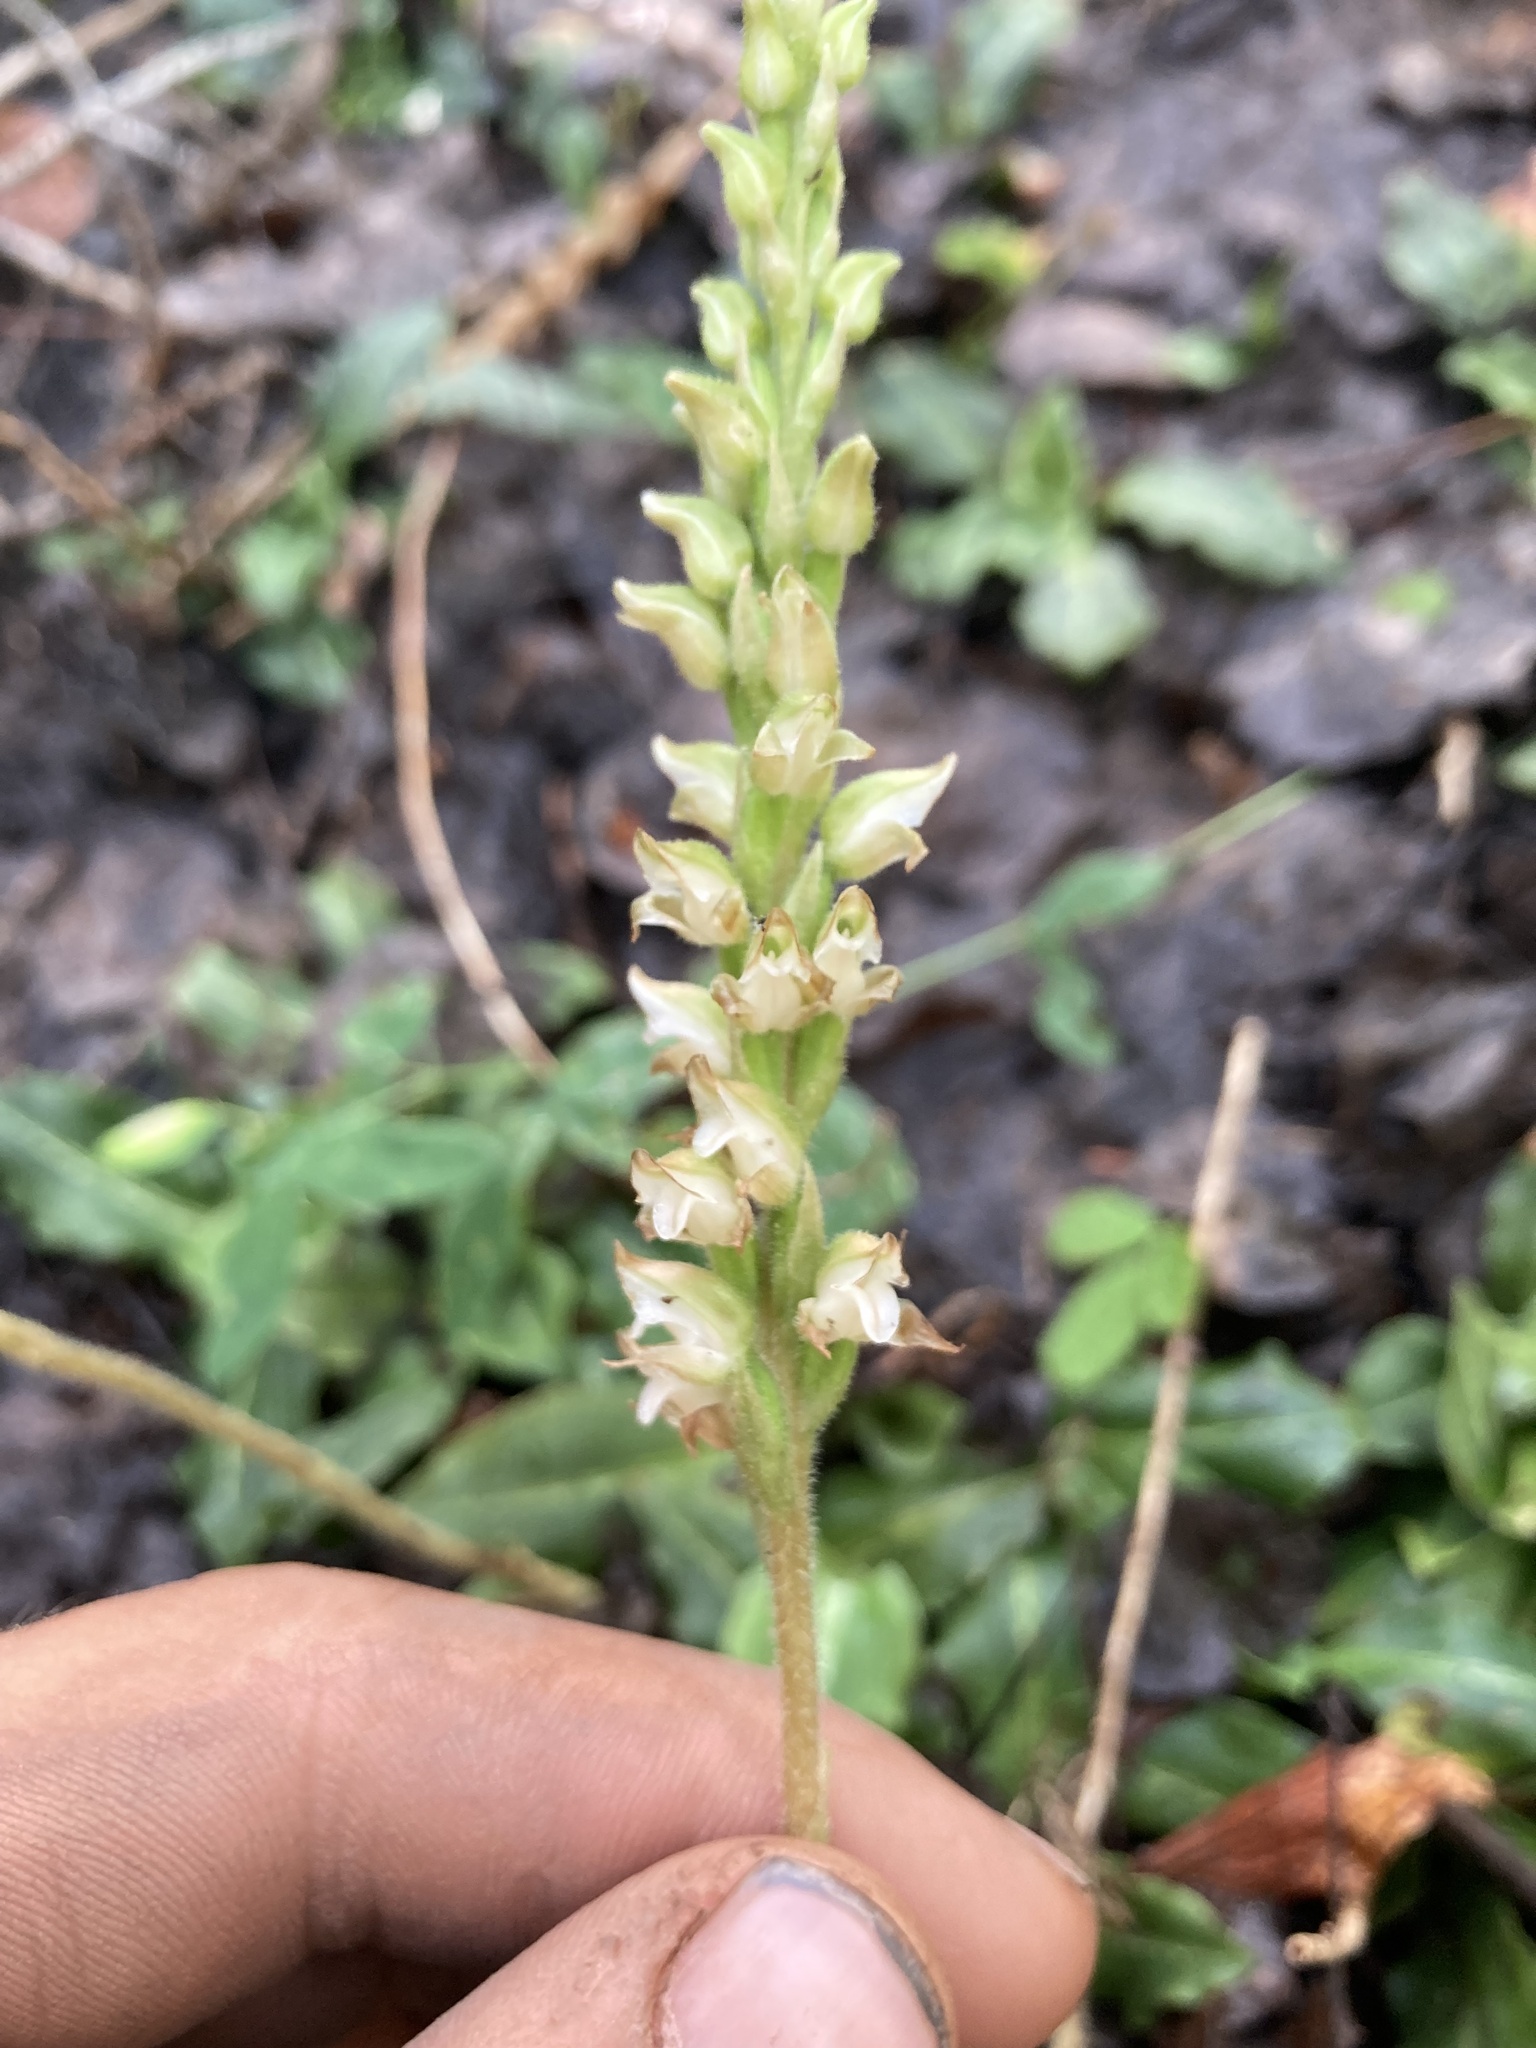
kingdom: Plantae
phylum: Tracheophyta
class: Liliopsida
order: Asparagales
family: Orchidaceae
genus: Goodyera
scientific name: Goodyera oblongifolia
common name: Giant rattlesnake-plantain
